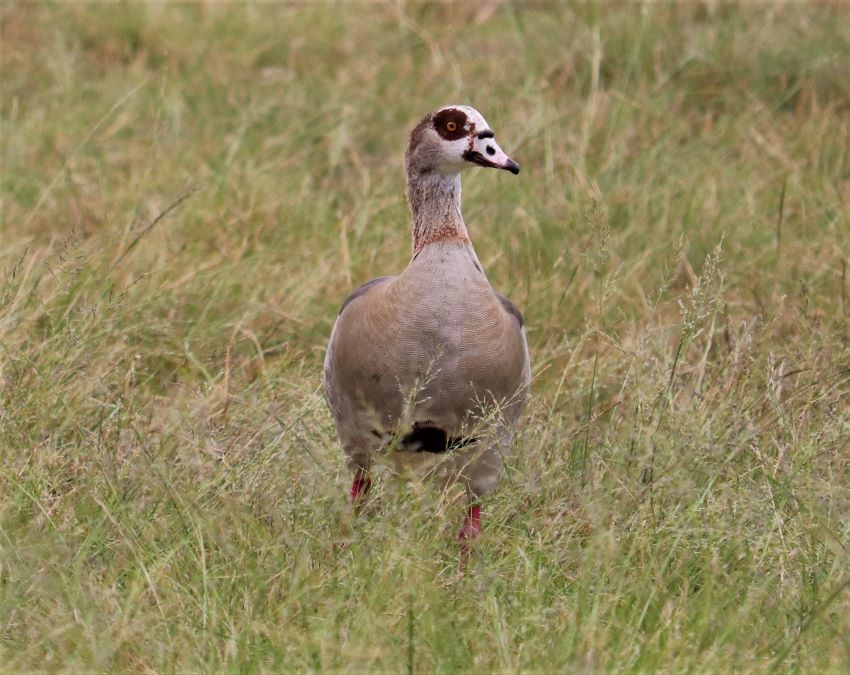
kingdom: Animalia
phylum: Chordata
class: Aves
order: Anseriformes
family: Anatidae
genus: Alopochen
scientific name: Alopochen aegyptiaca
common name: Egyptian goose
